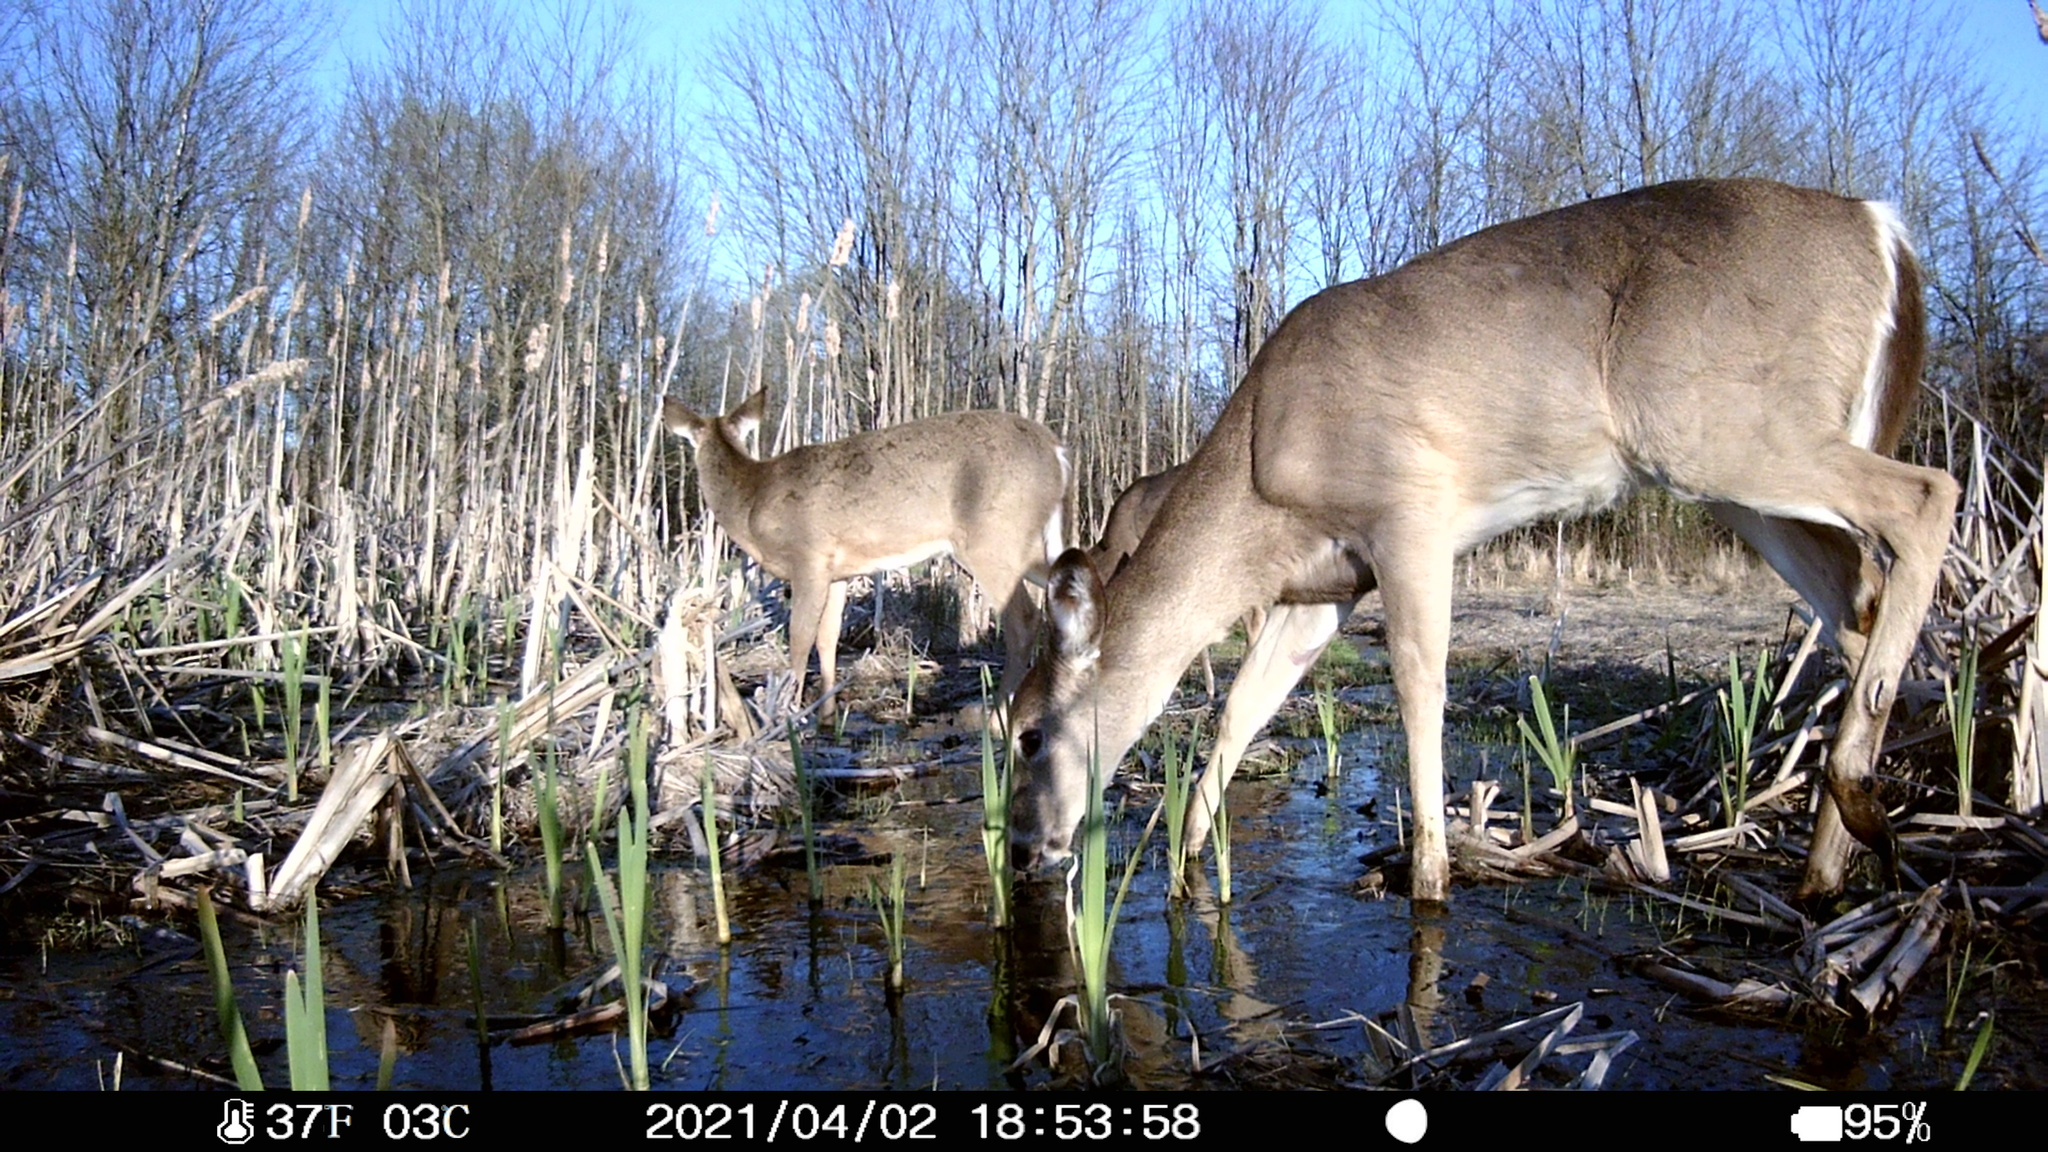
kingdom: Animalia
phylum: Chordata
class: Mammalia
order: Artiodactyla
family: Cervidae
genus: Odocoileus
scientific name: Odocoileus virginianus
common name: White-tailed deer
